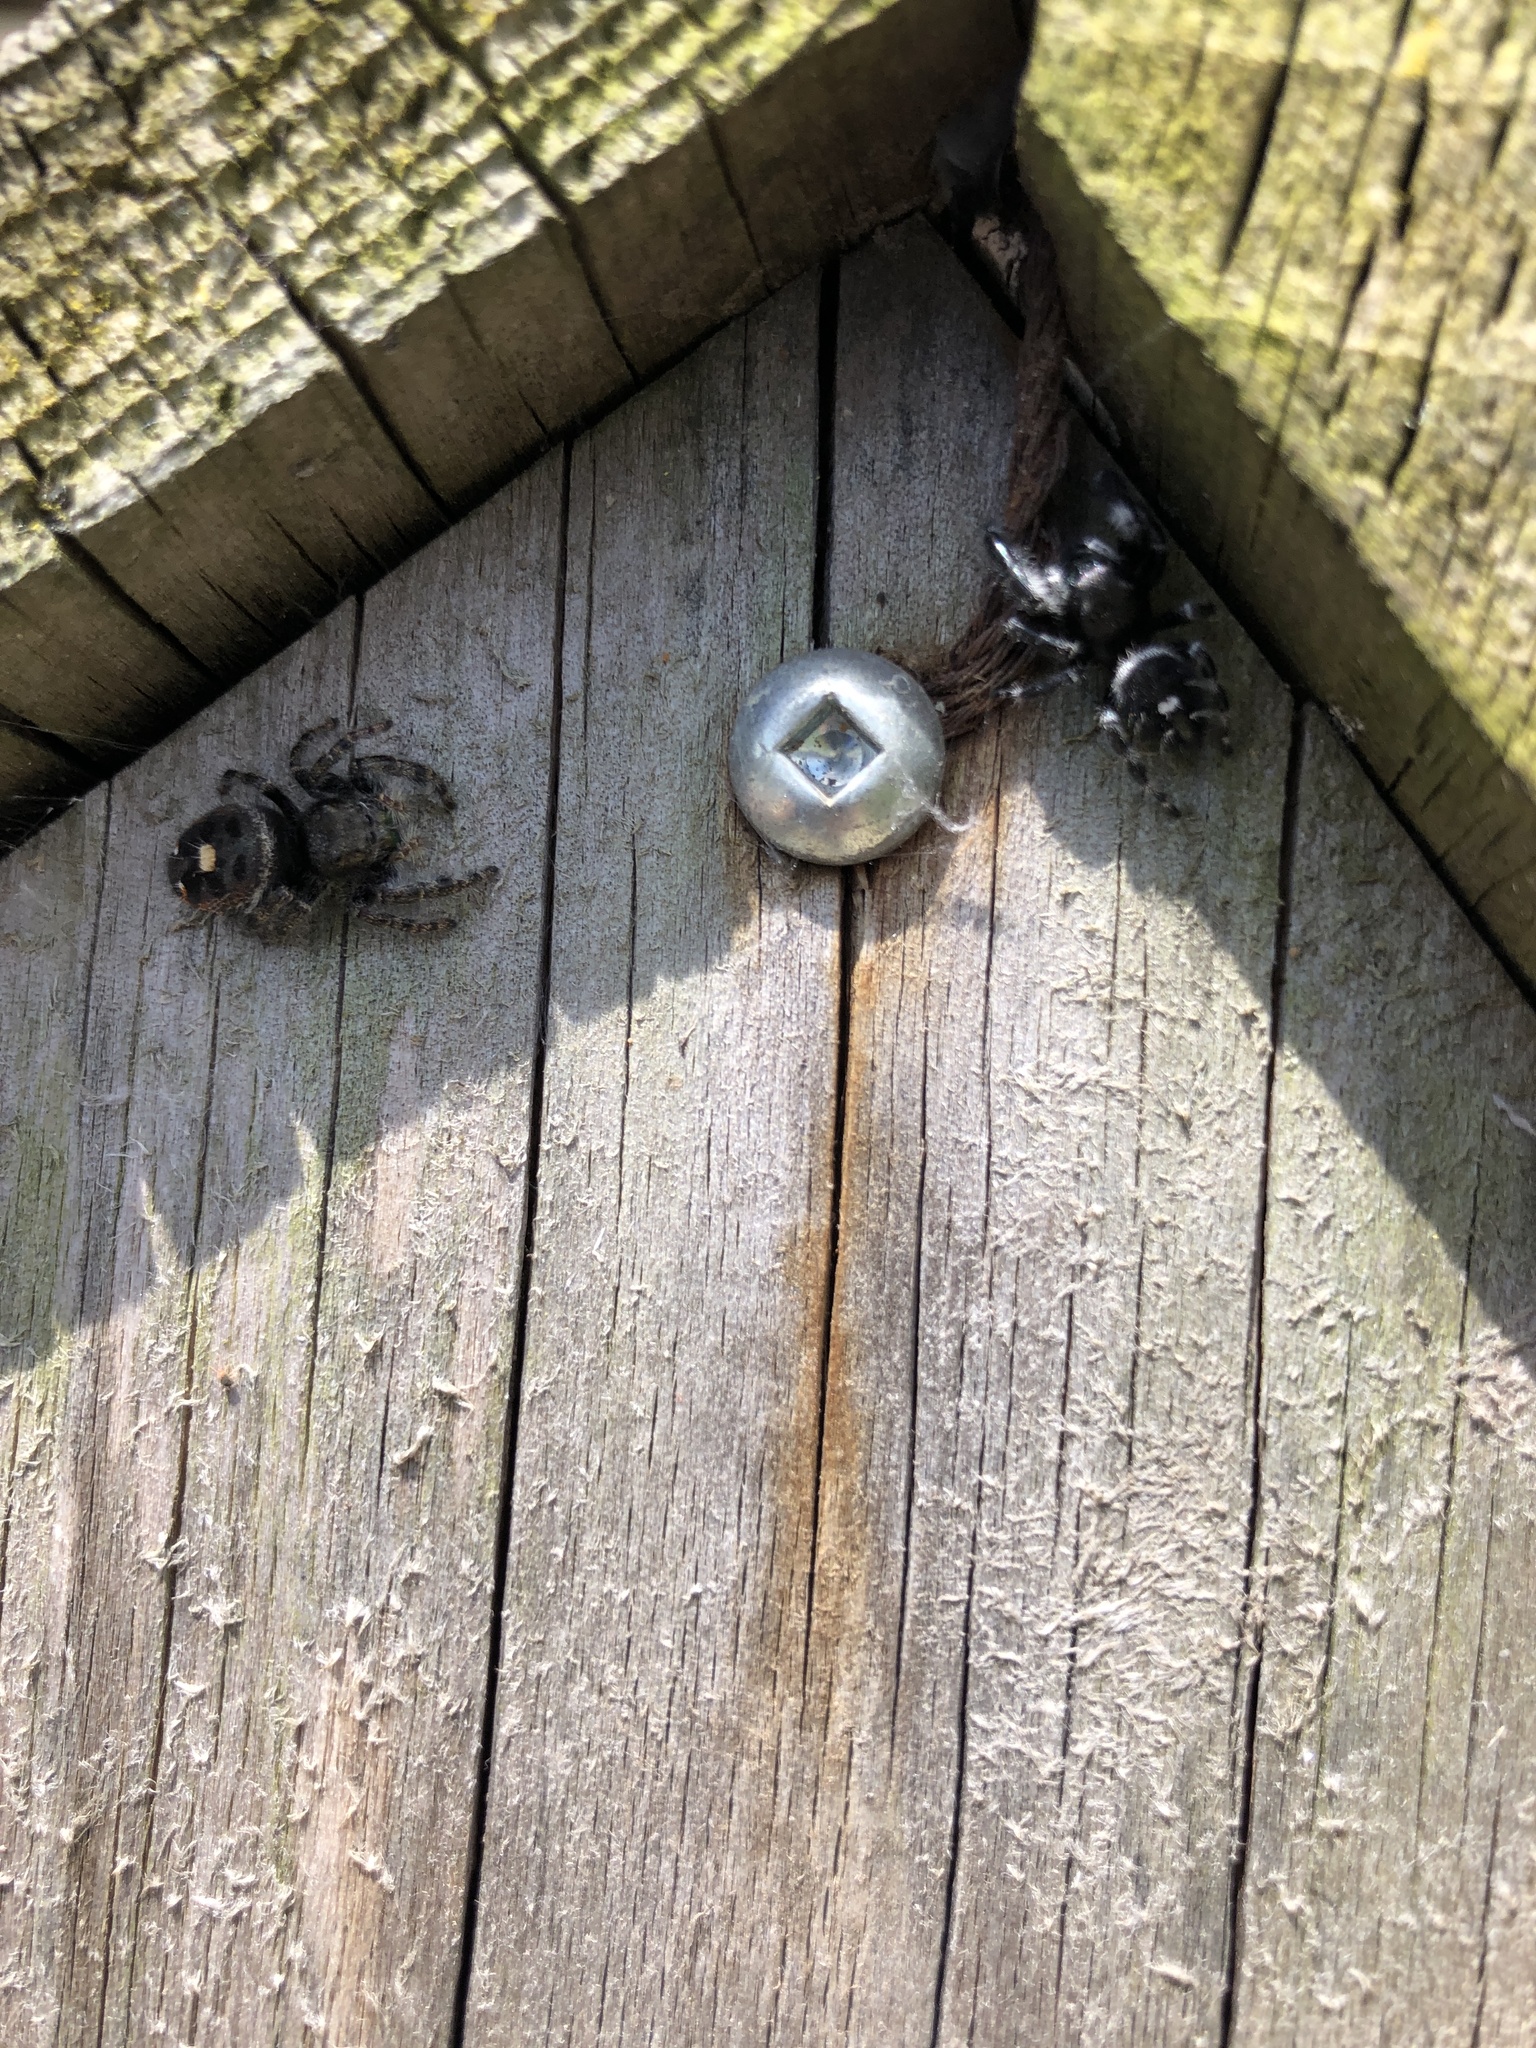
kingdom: Animalia
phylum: Arthropoda
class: Arachnida
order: Araneae
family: Salticidae
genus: Phidippus
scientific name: Phidippus audax
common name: Bold jumper
